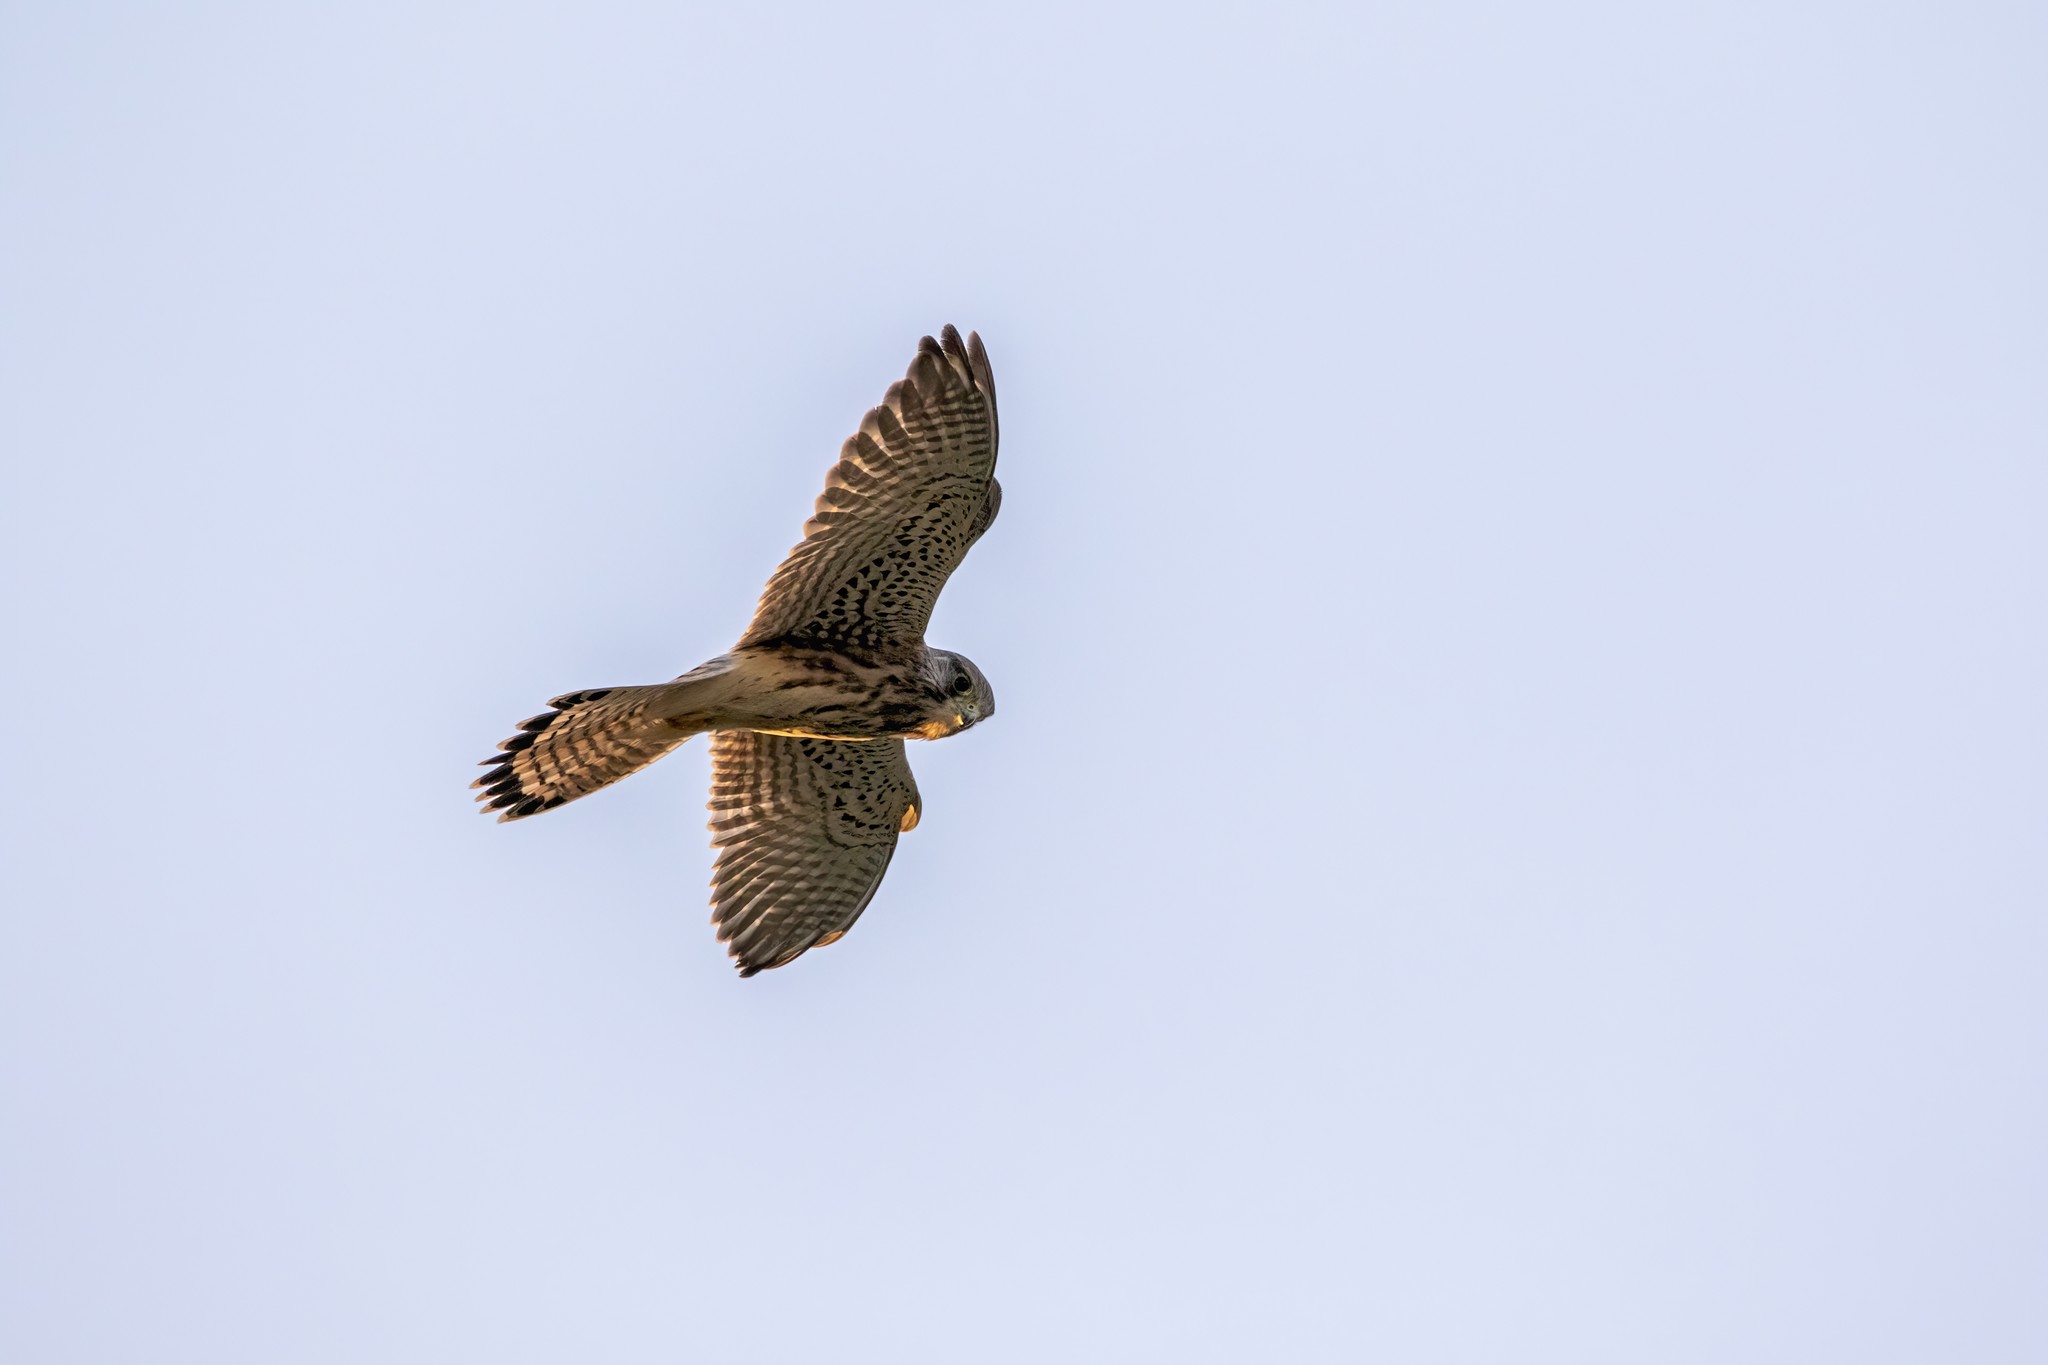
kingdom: Animalia
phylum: Chordata
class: Aves
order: Falconiformes
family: Falconidae
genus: Falco
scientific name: Falco tinnunculus
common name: Common kestrel
